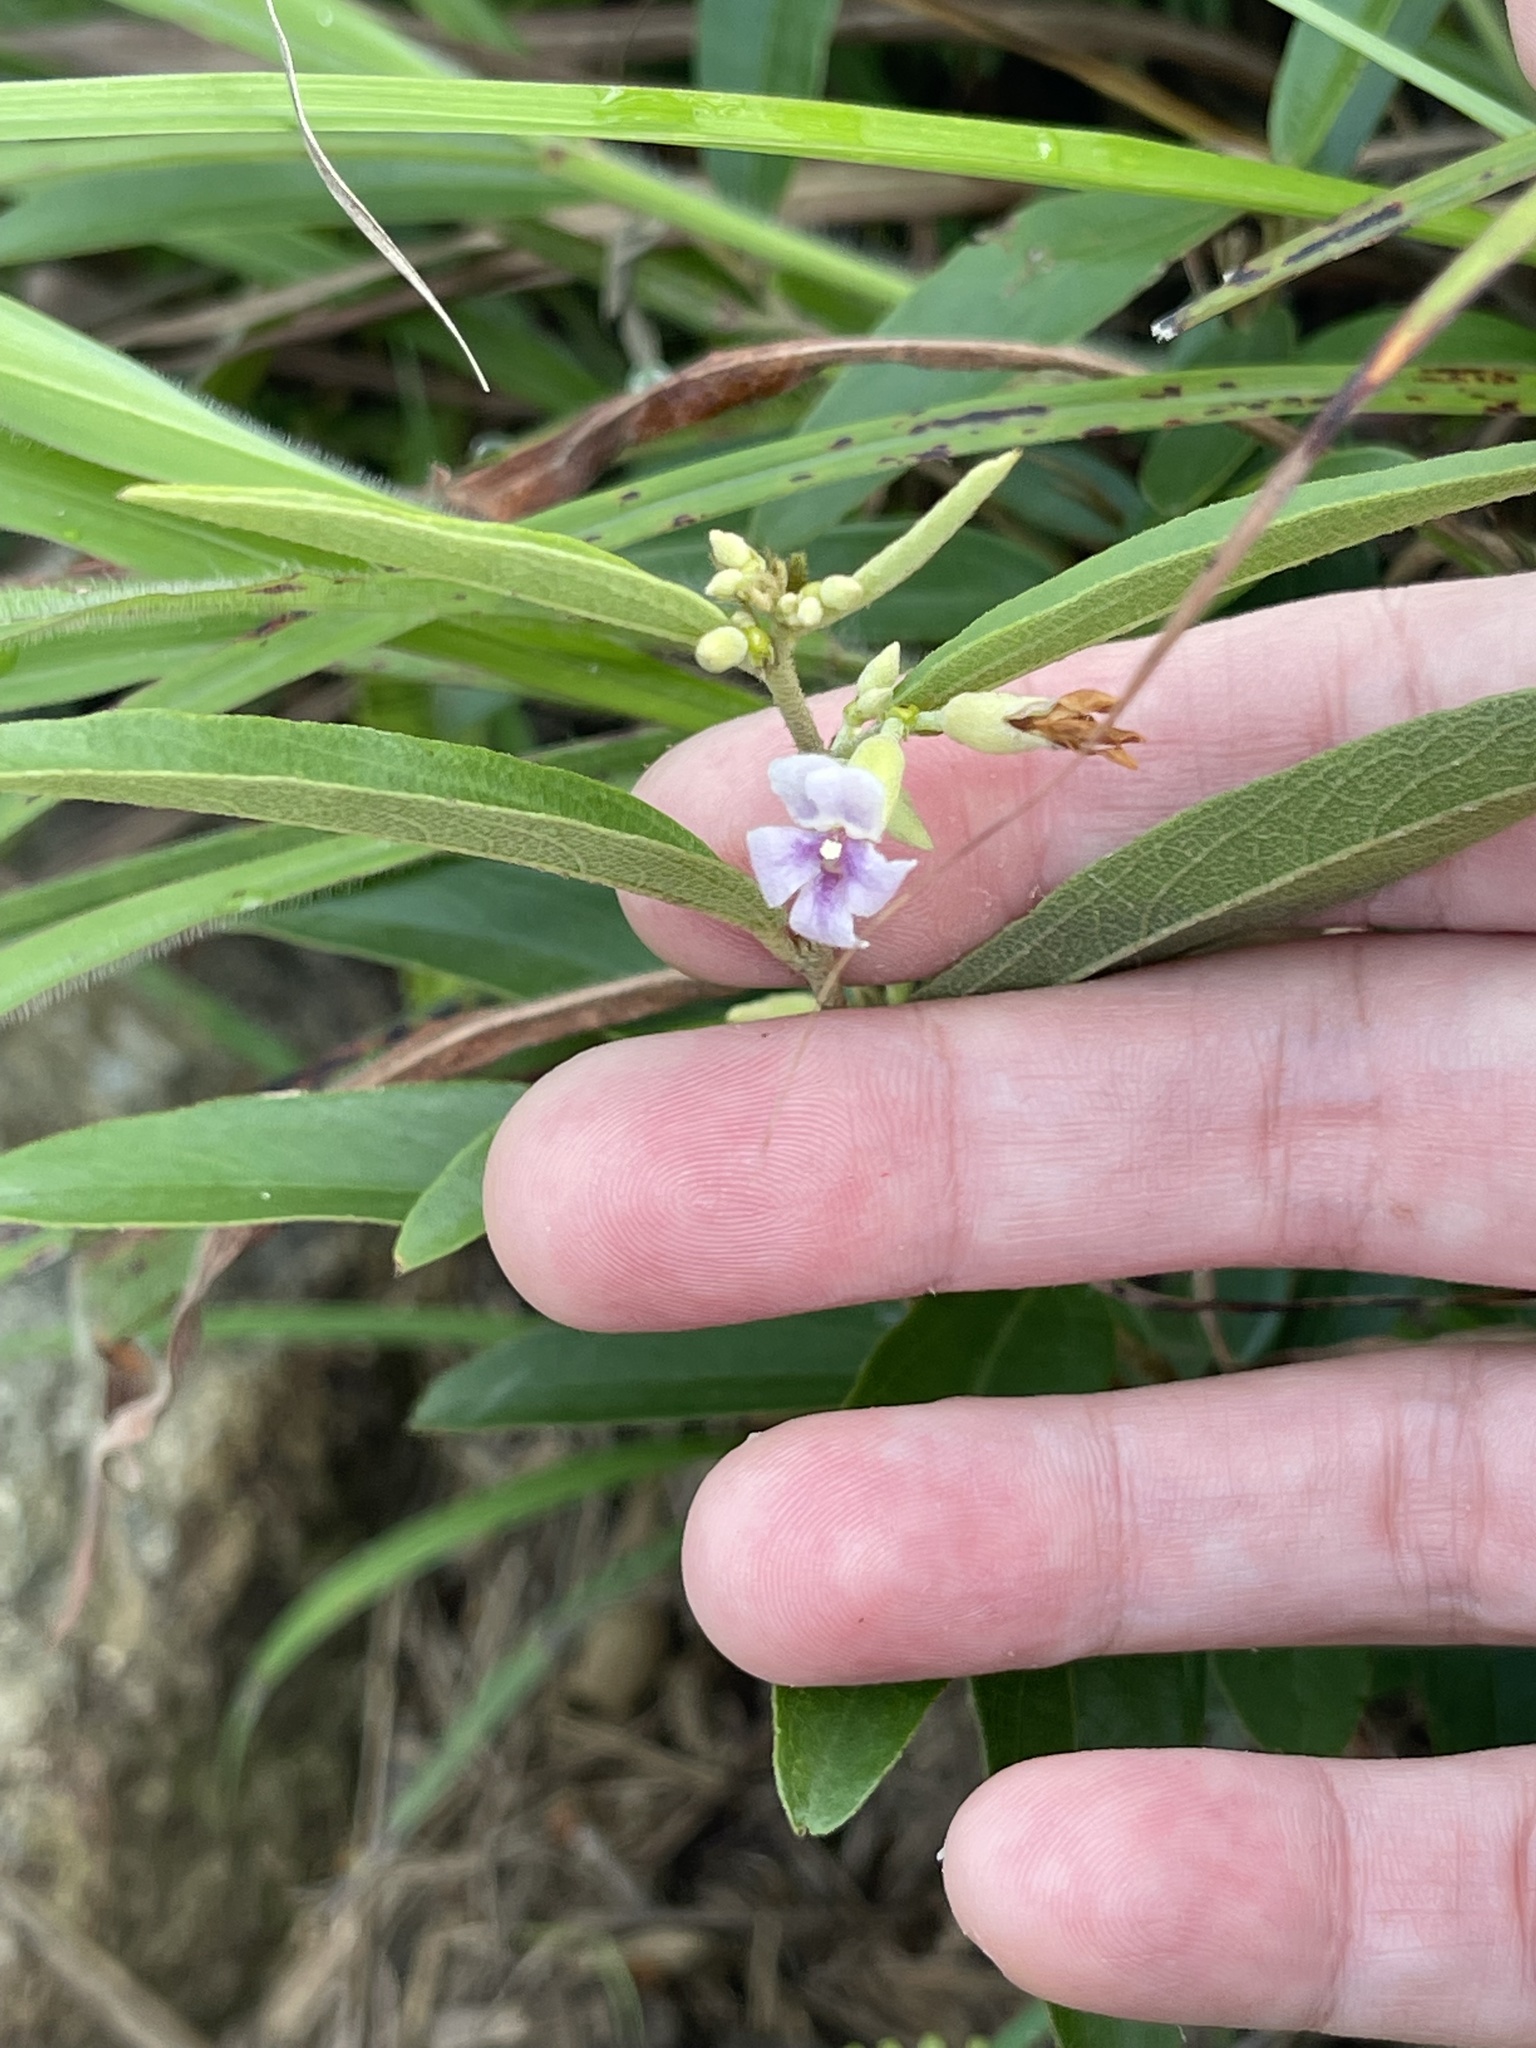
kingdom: Plantae
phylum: Tracheophyta
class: Magnoliopsida
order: Malvales
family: Malvaceae
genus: Helicteres
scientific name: Helicteres angustifolia
